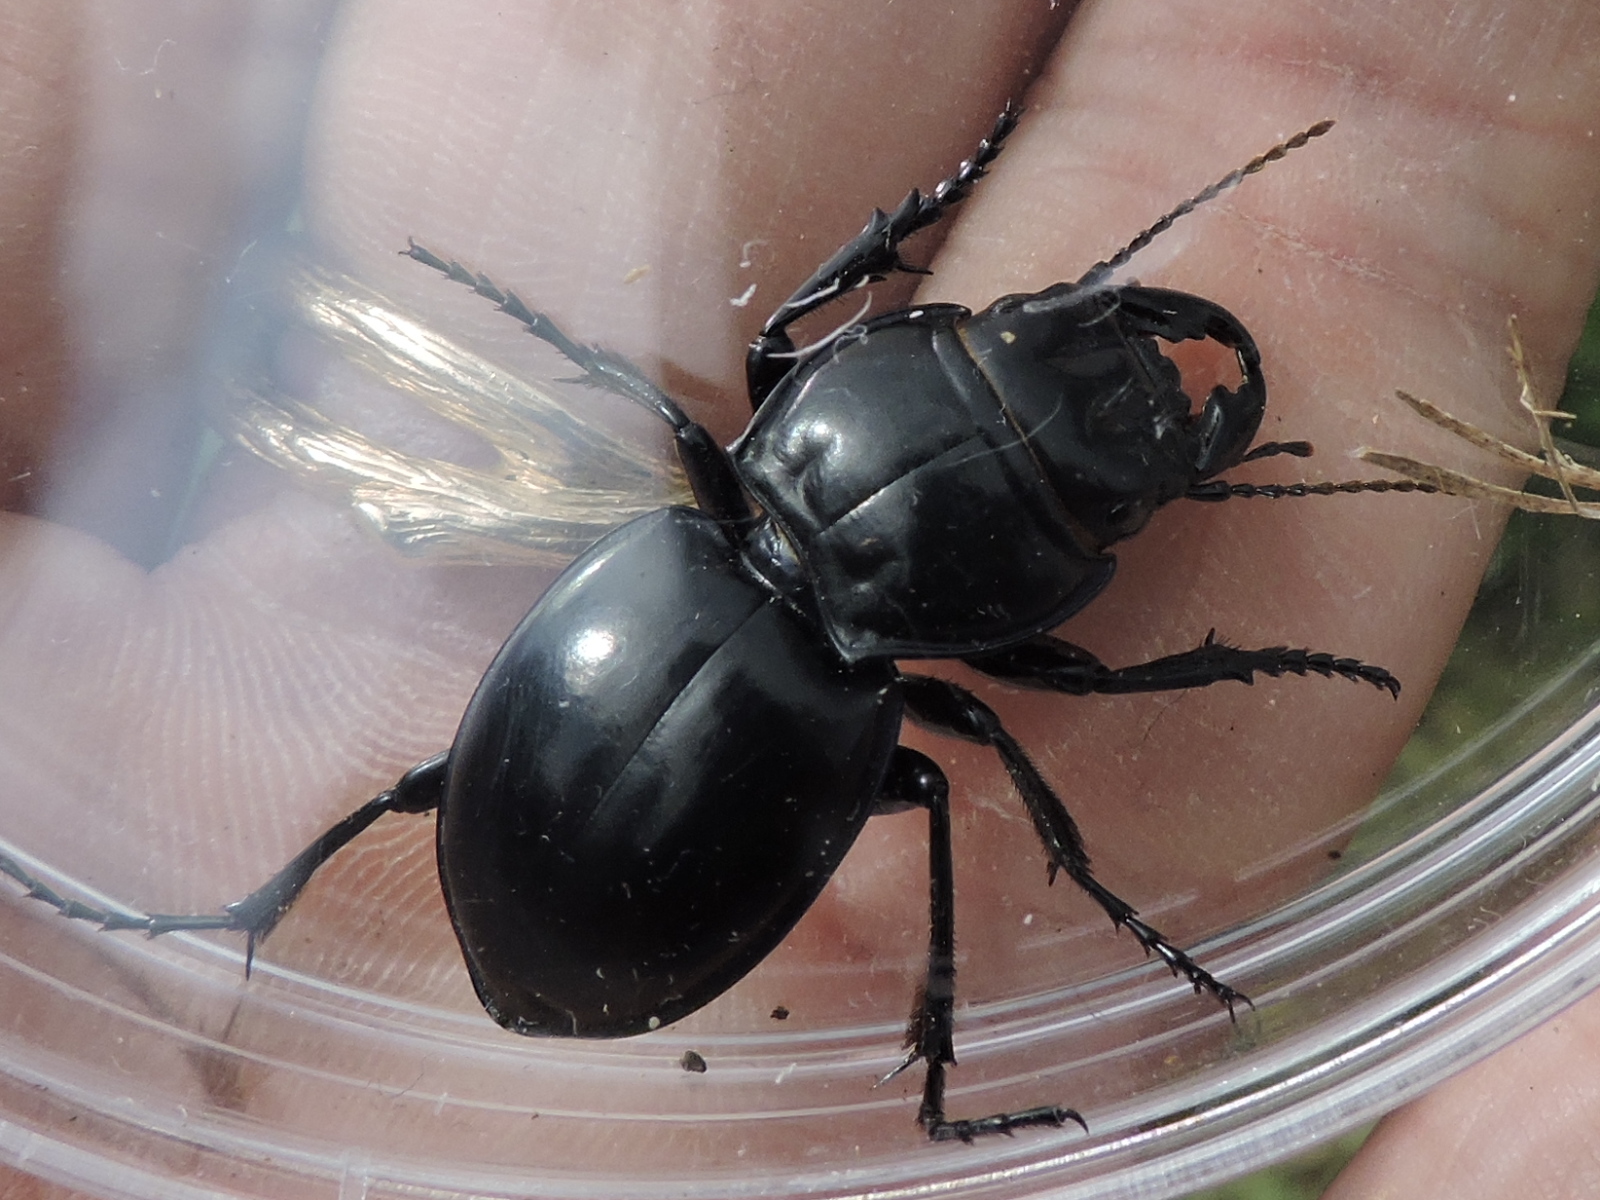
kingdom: Animalia
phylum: Arthropoda
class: Insecta
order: Coleoptera
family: Carabidae
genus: Pasimachus
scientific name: Pasimachus
